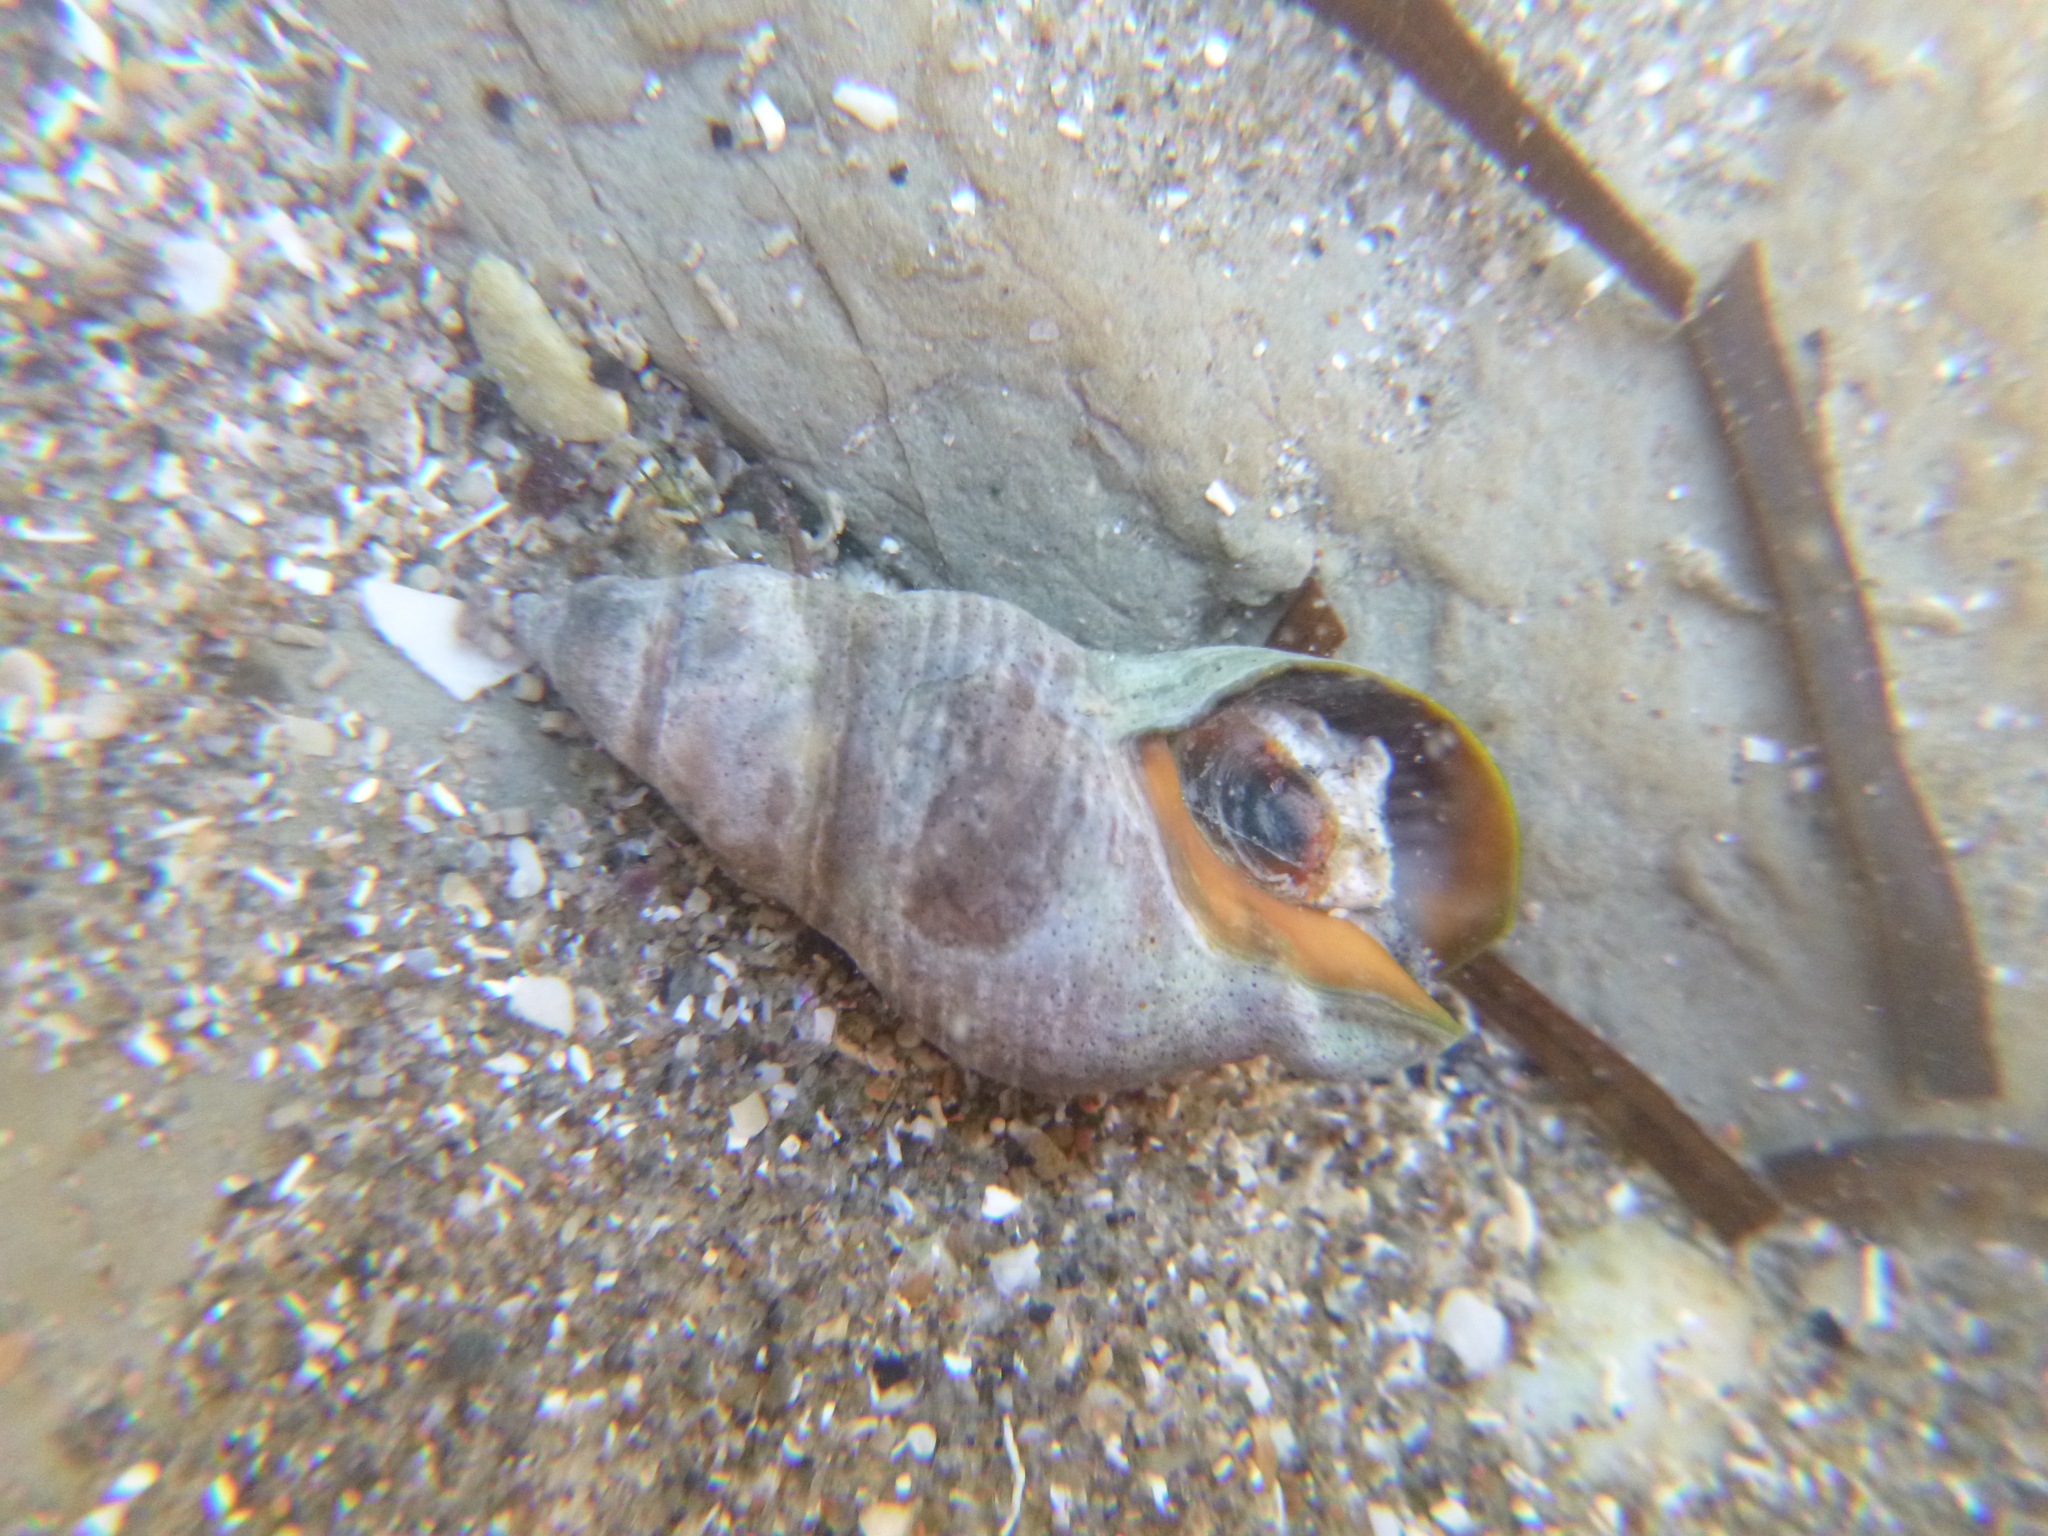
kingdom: Animalia
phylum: Mollusca
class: Gastropoda
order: Neogastropoda
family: Cominellidae
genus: Cominella
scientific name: Cominella virgata
